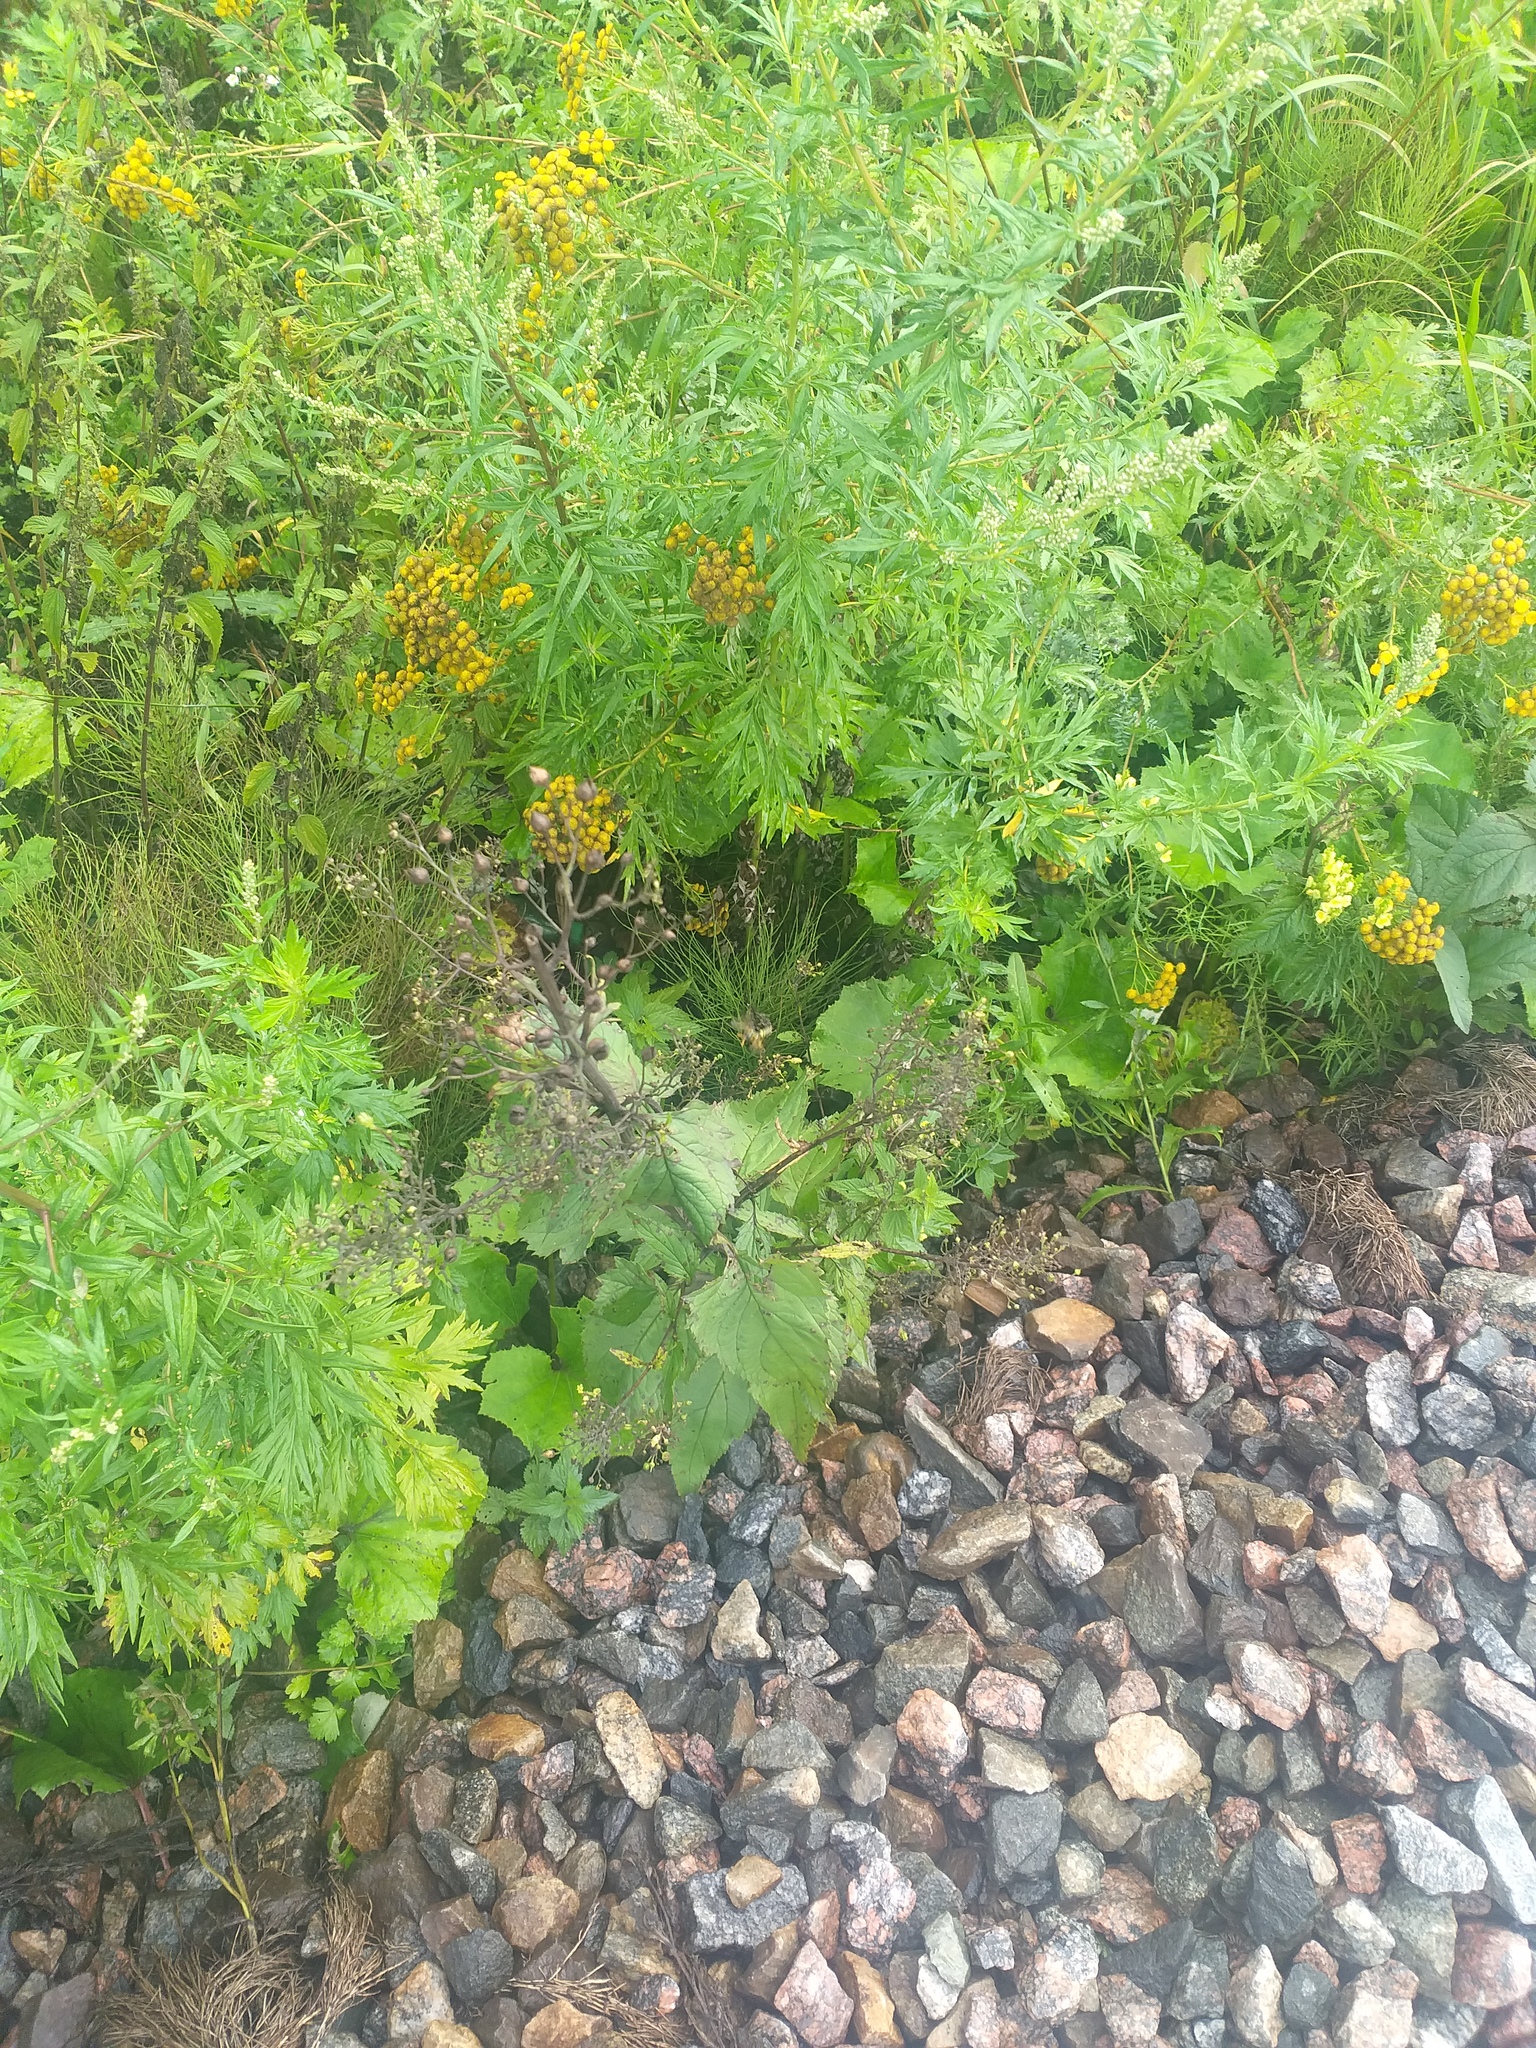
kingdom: Plantae
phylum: Tracheophyta
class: Magnoliopsida
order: Lamiales
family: Scrophulariaceae
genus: Scrophularia
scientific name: Scrophularia nodosa
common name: Common figwort
